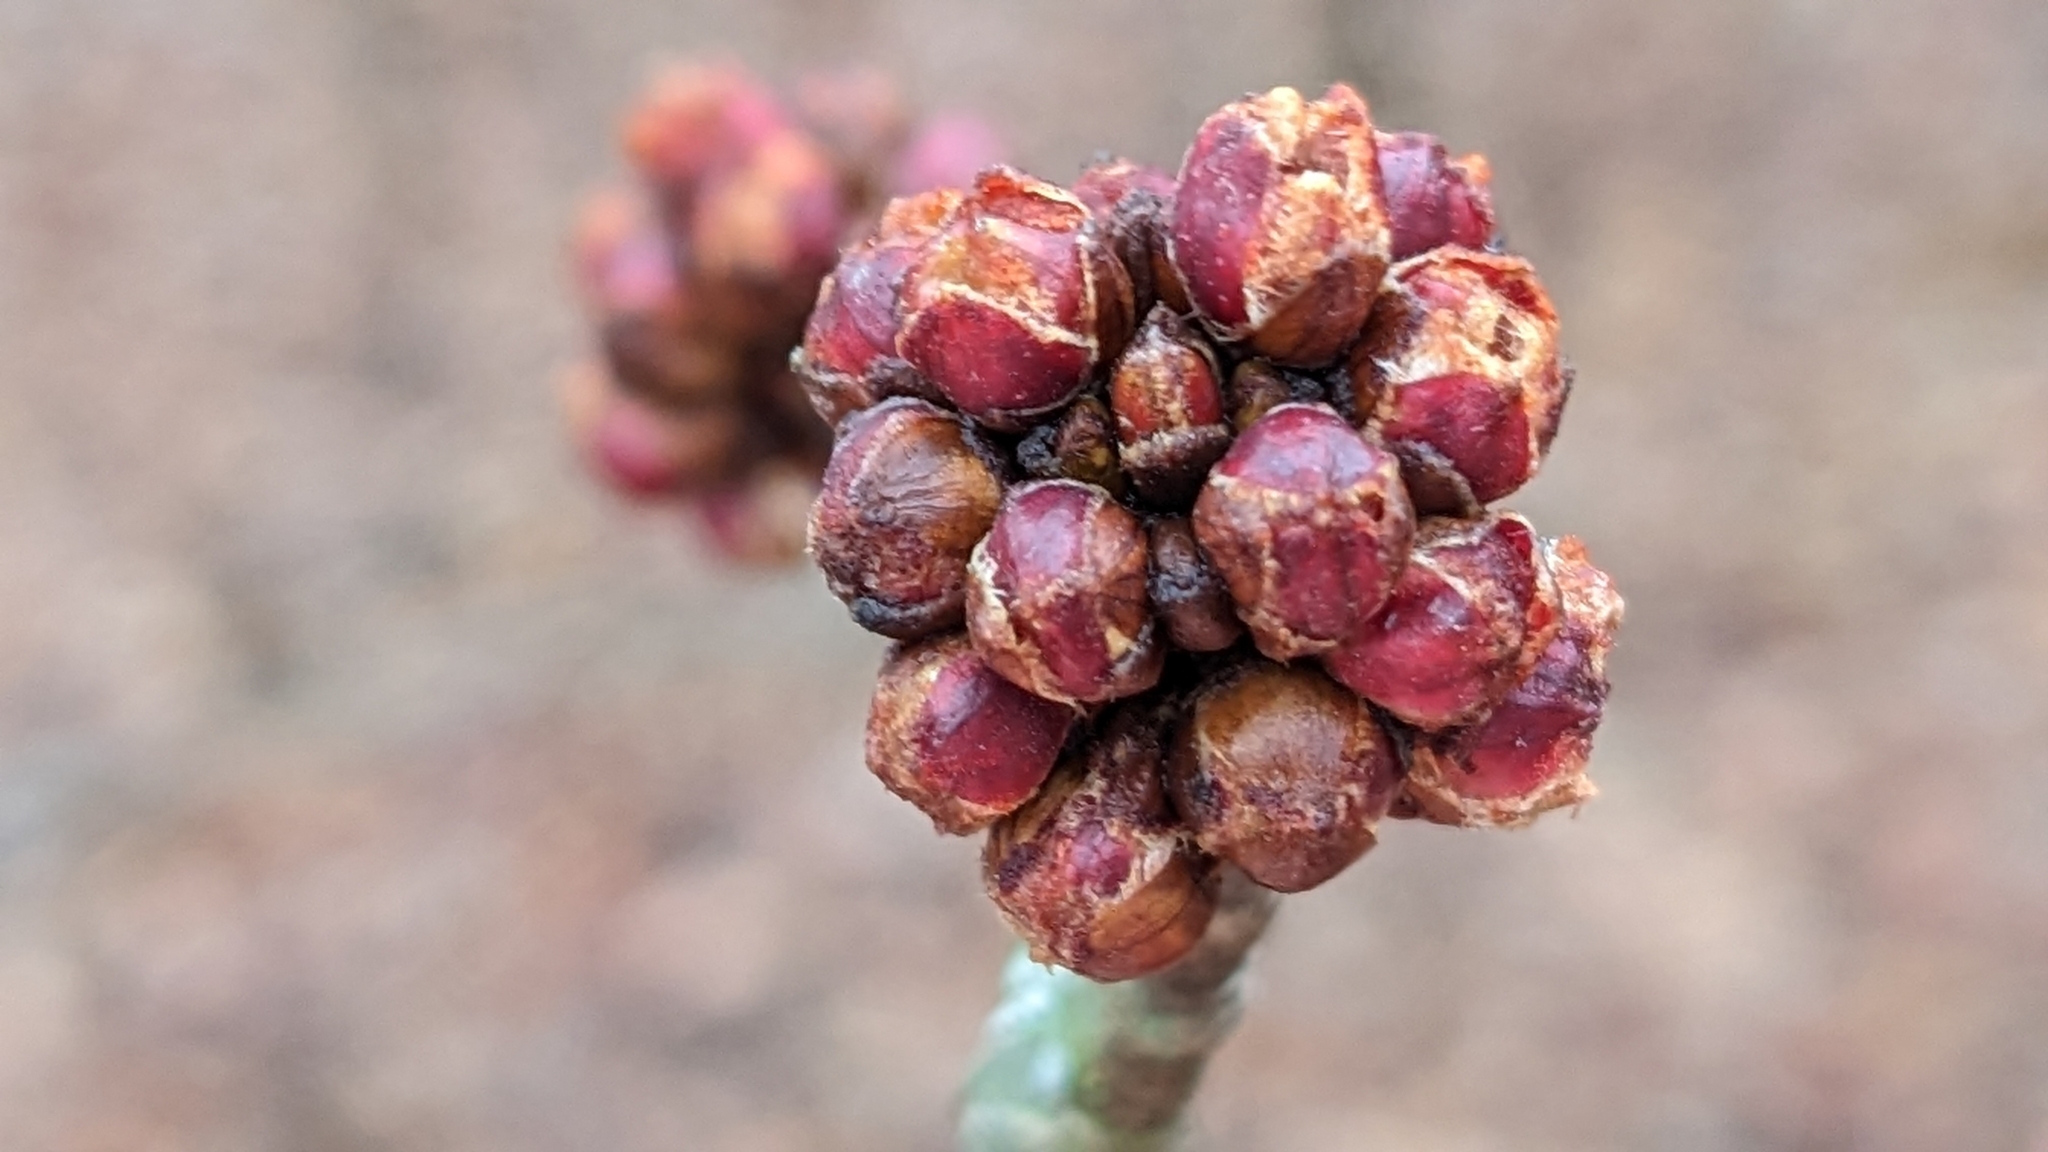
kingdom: Plantae
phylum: Tracheophyta
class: Magnoliopsida
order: Sapindales
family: Sapindaceae
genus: Acer
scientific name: Acer saccharinum
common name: Silver maple
